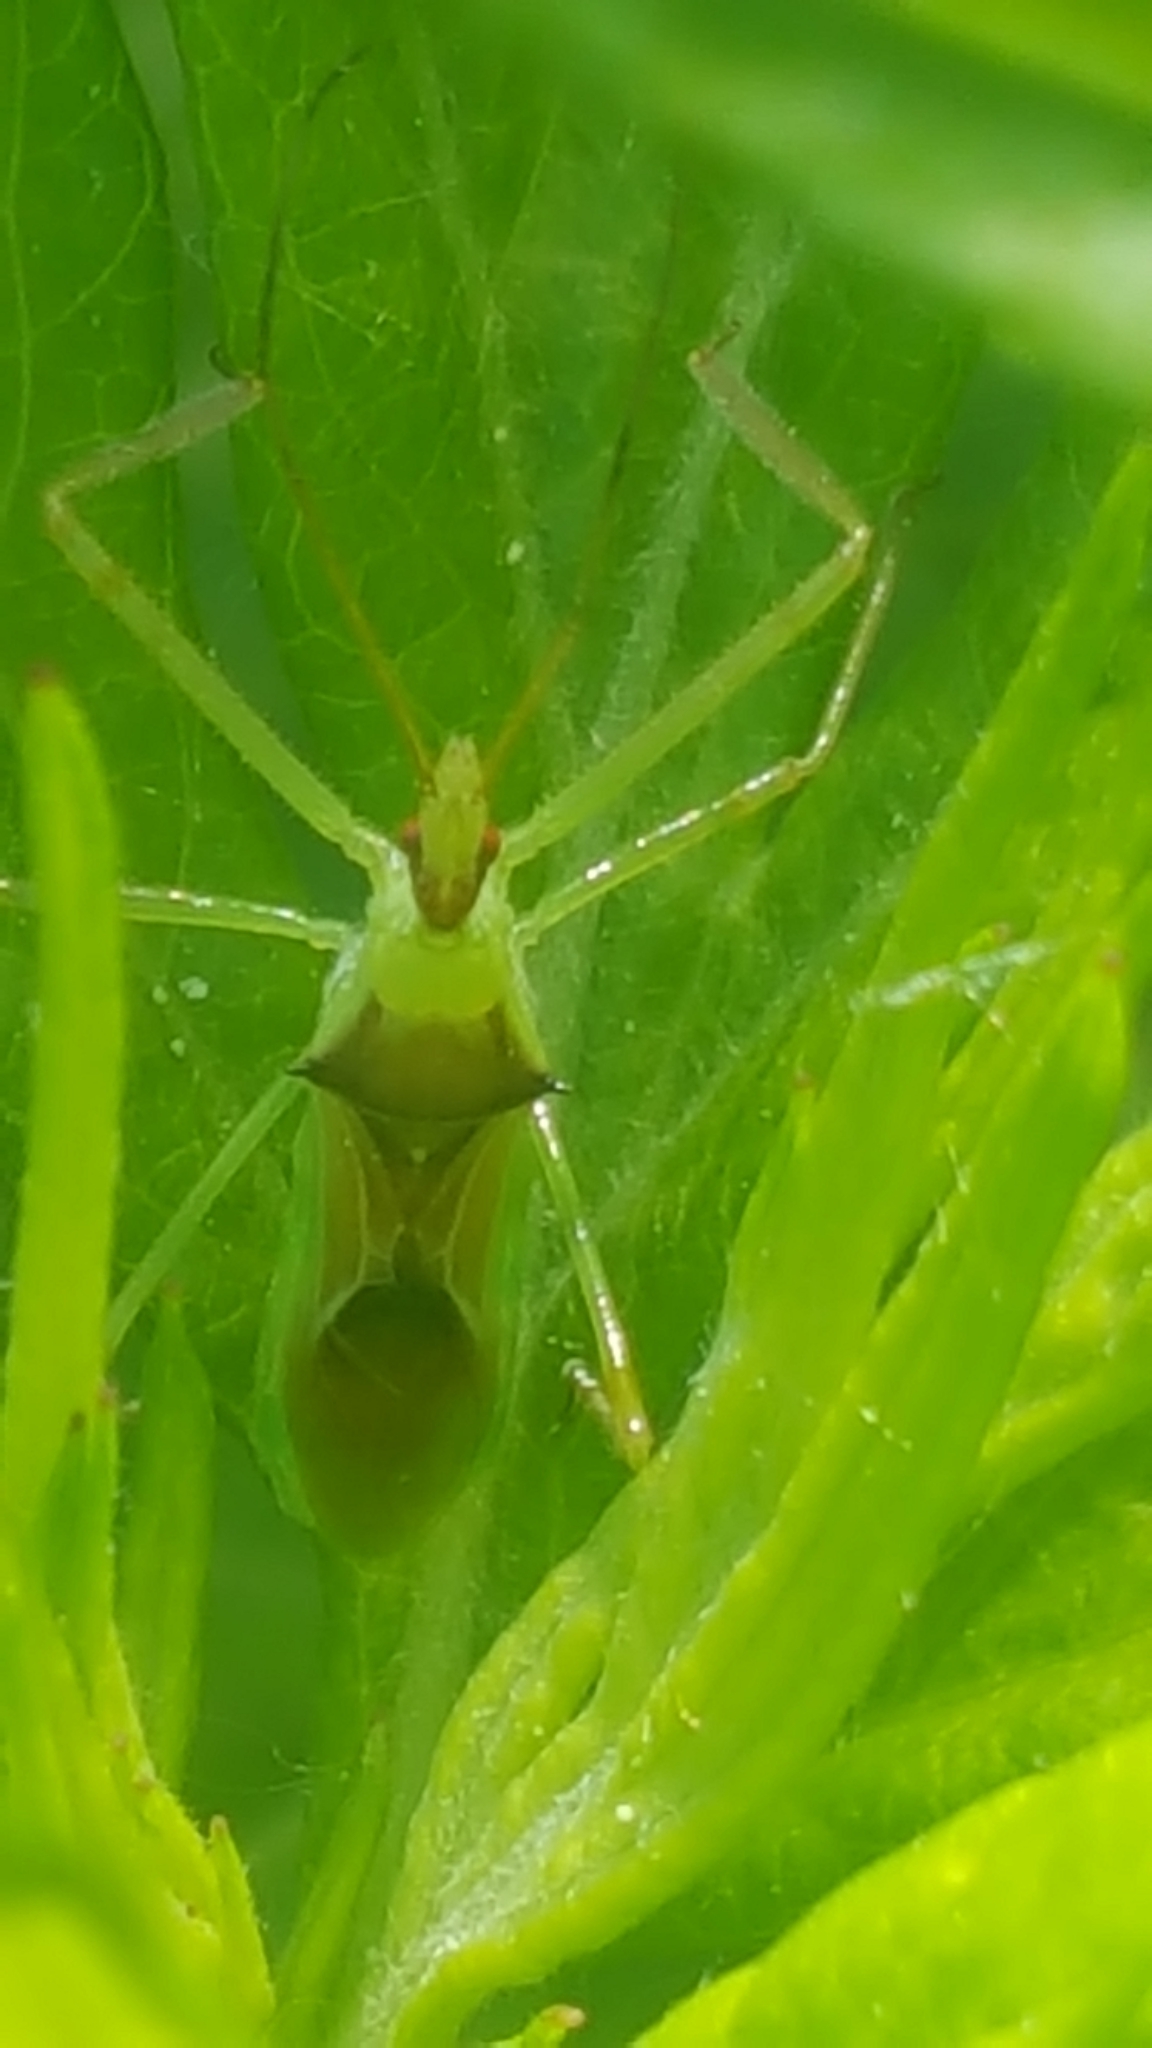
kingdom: Animalia
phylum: Arthropoda
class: Insecta
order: Hemiptera
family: Reduviidae
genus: Zelus
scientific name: Zelus luridus
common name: Pale green assassin bug
